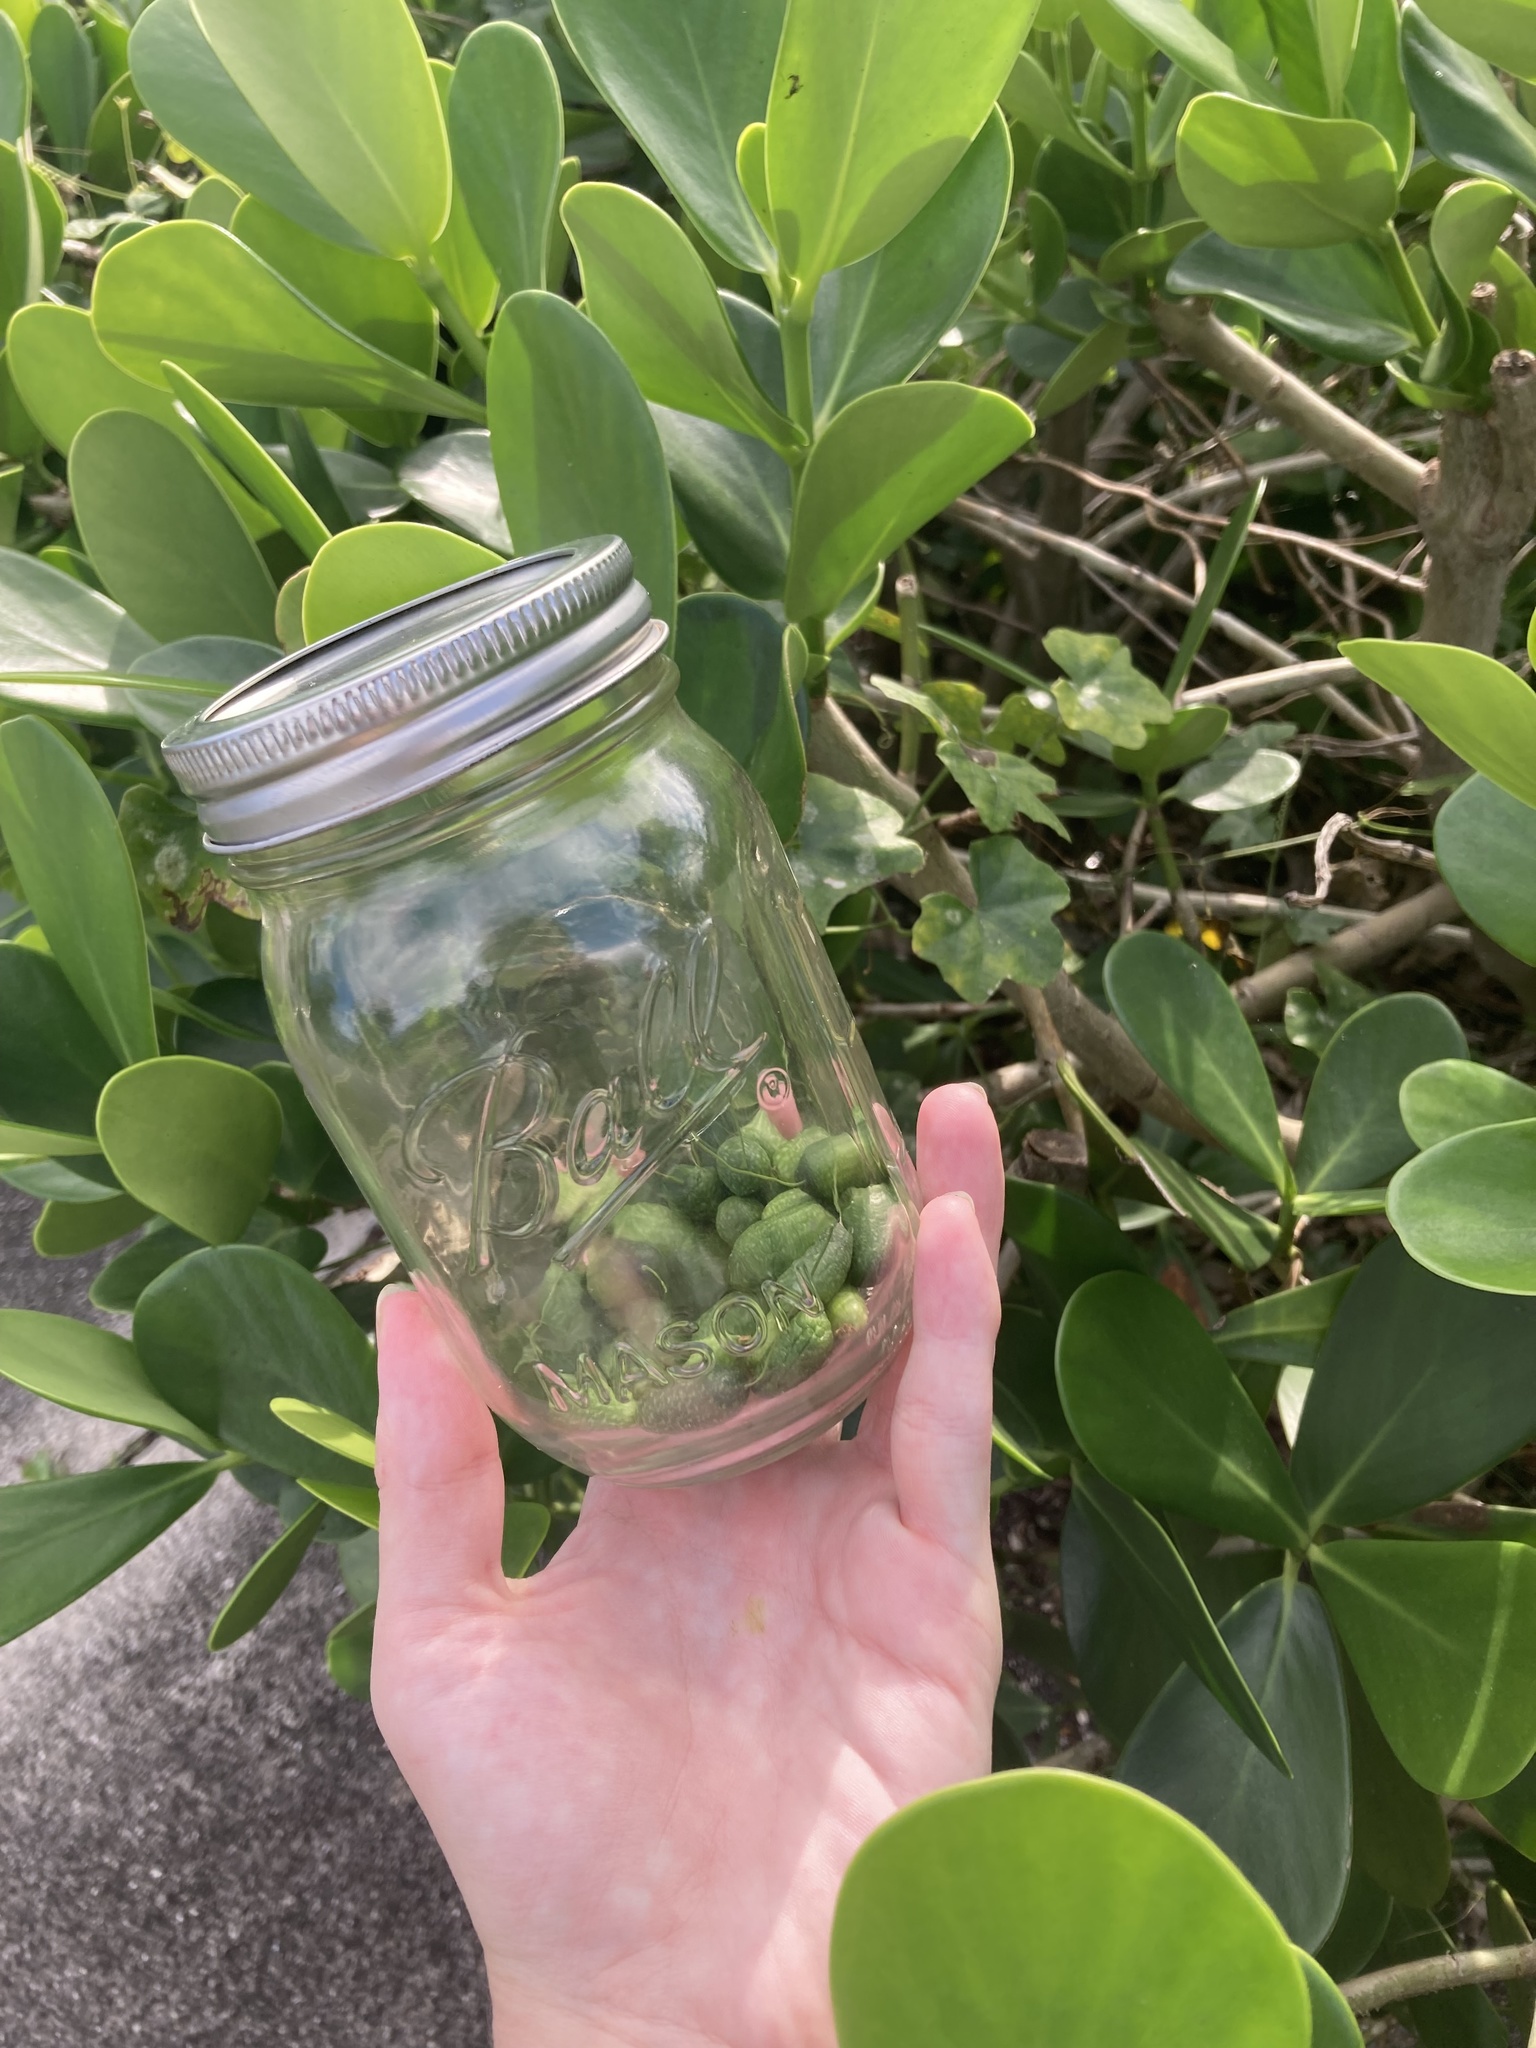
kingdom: Plantae
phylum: Tracheophyta
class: Magnoliopsida
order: Cucurbitales
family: Cucurbitaceae
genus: Melothria
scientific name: Melothria pendula
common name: Creeping-cucumber
